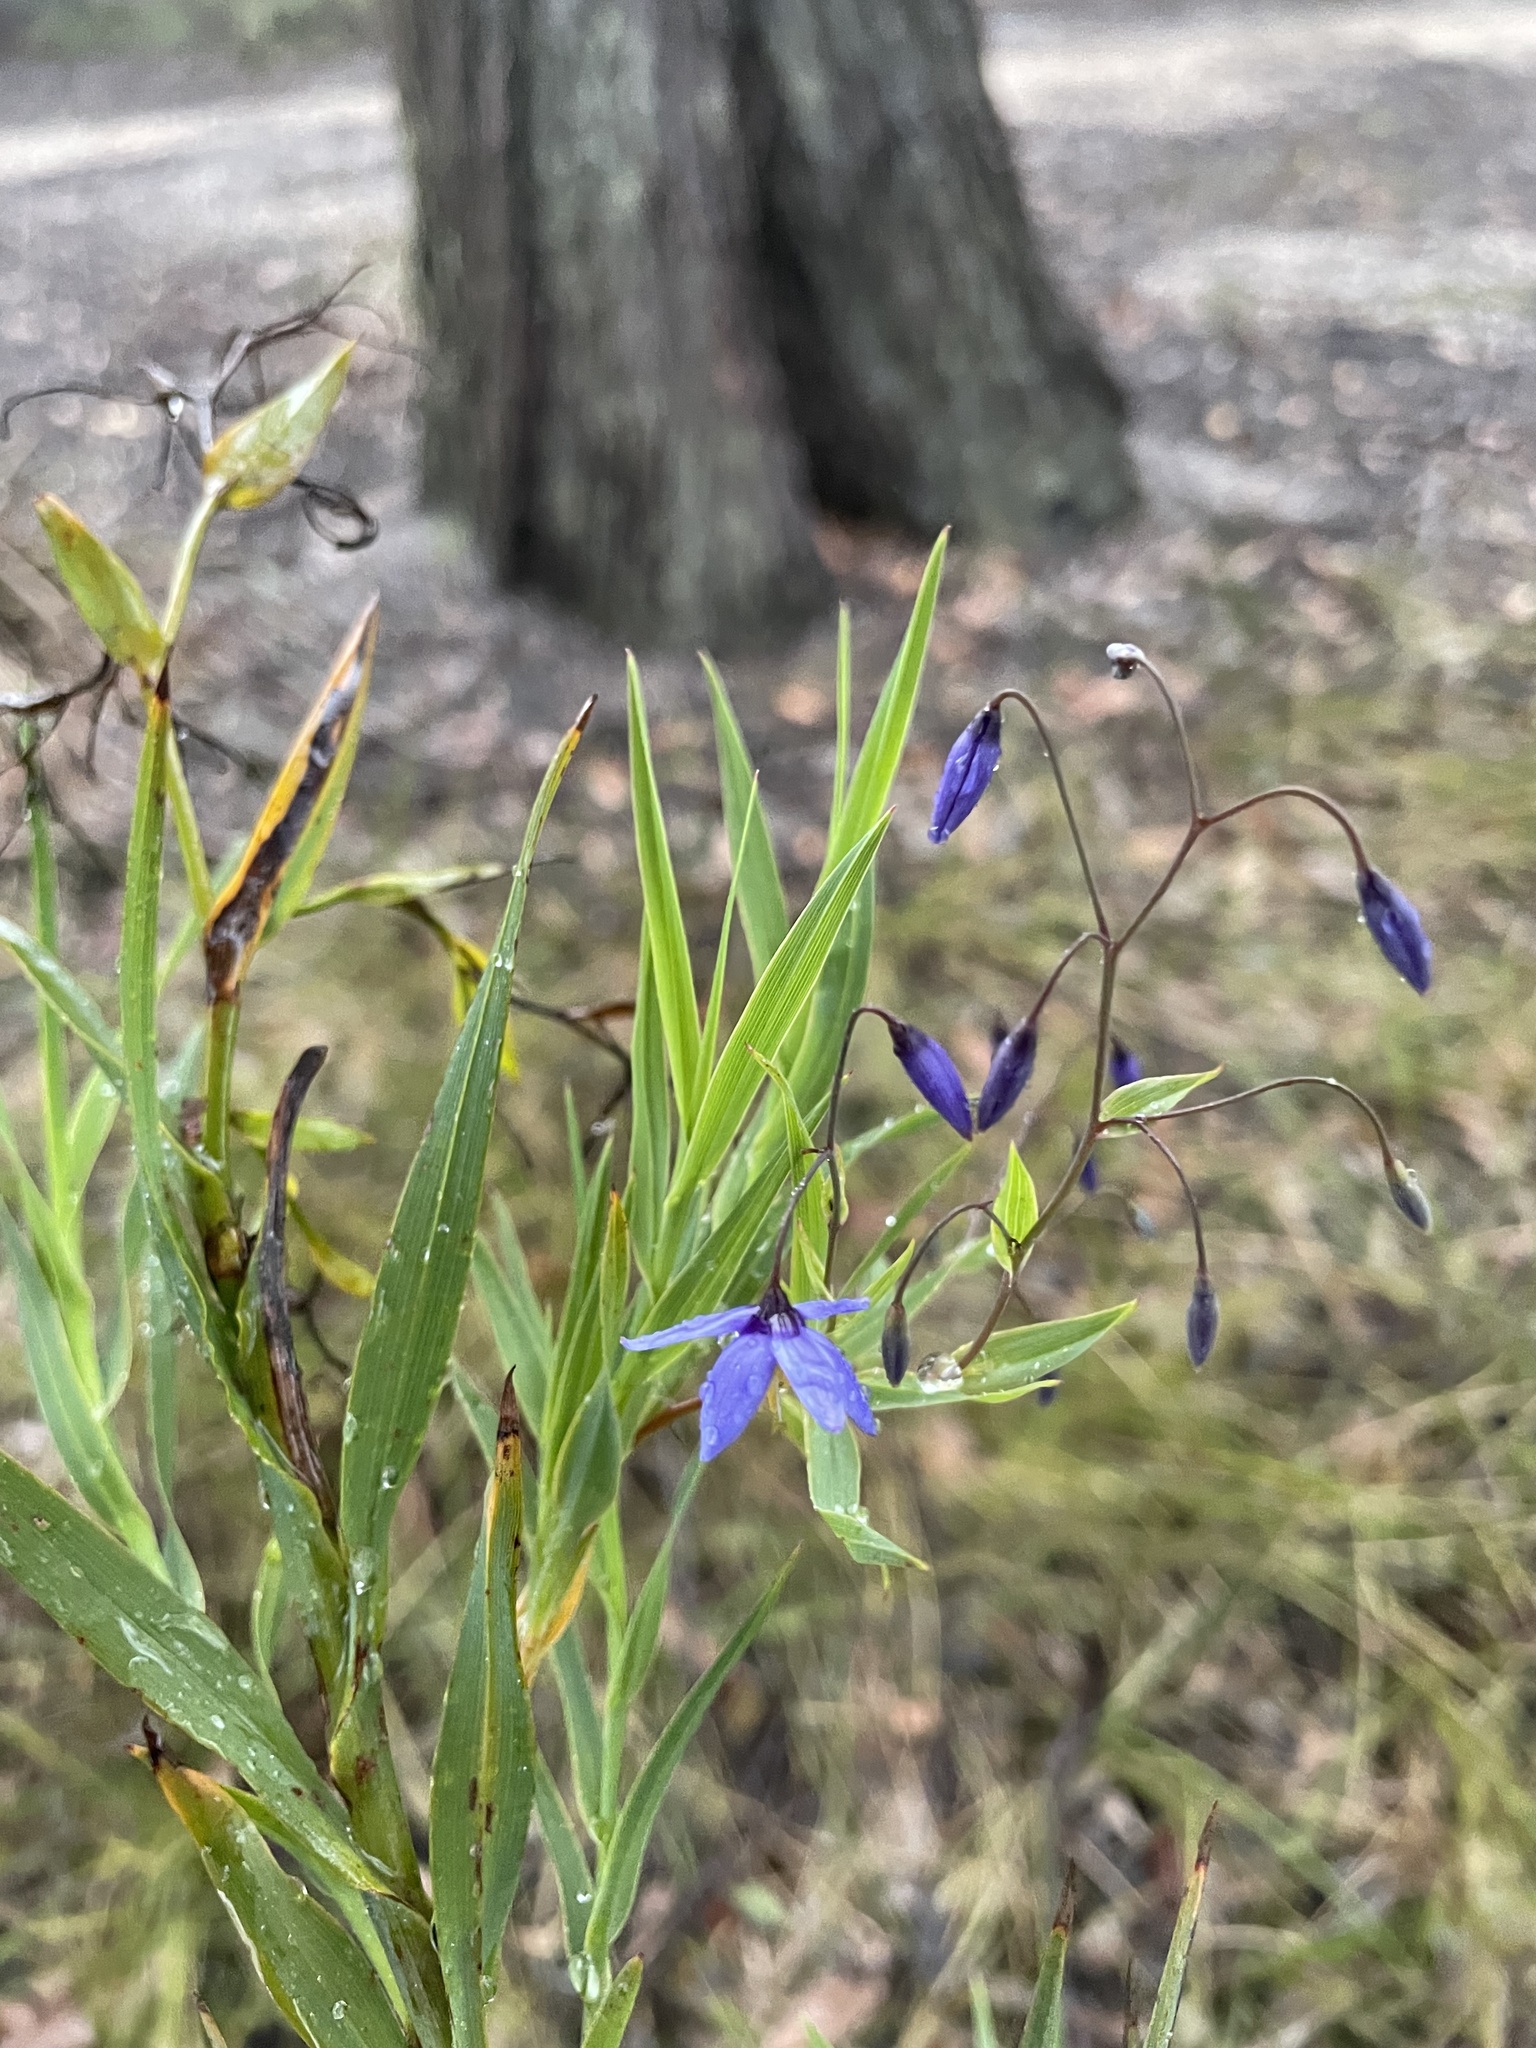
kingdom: Plantae
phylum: Tracheophyta
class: Liliopsida
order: Asparagales
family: Asphodelaceae
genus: Stypandra
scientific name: Stypandra glauca
